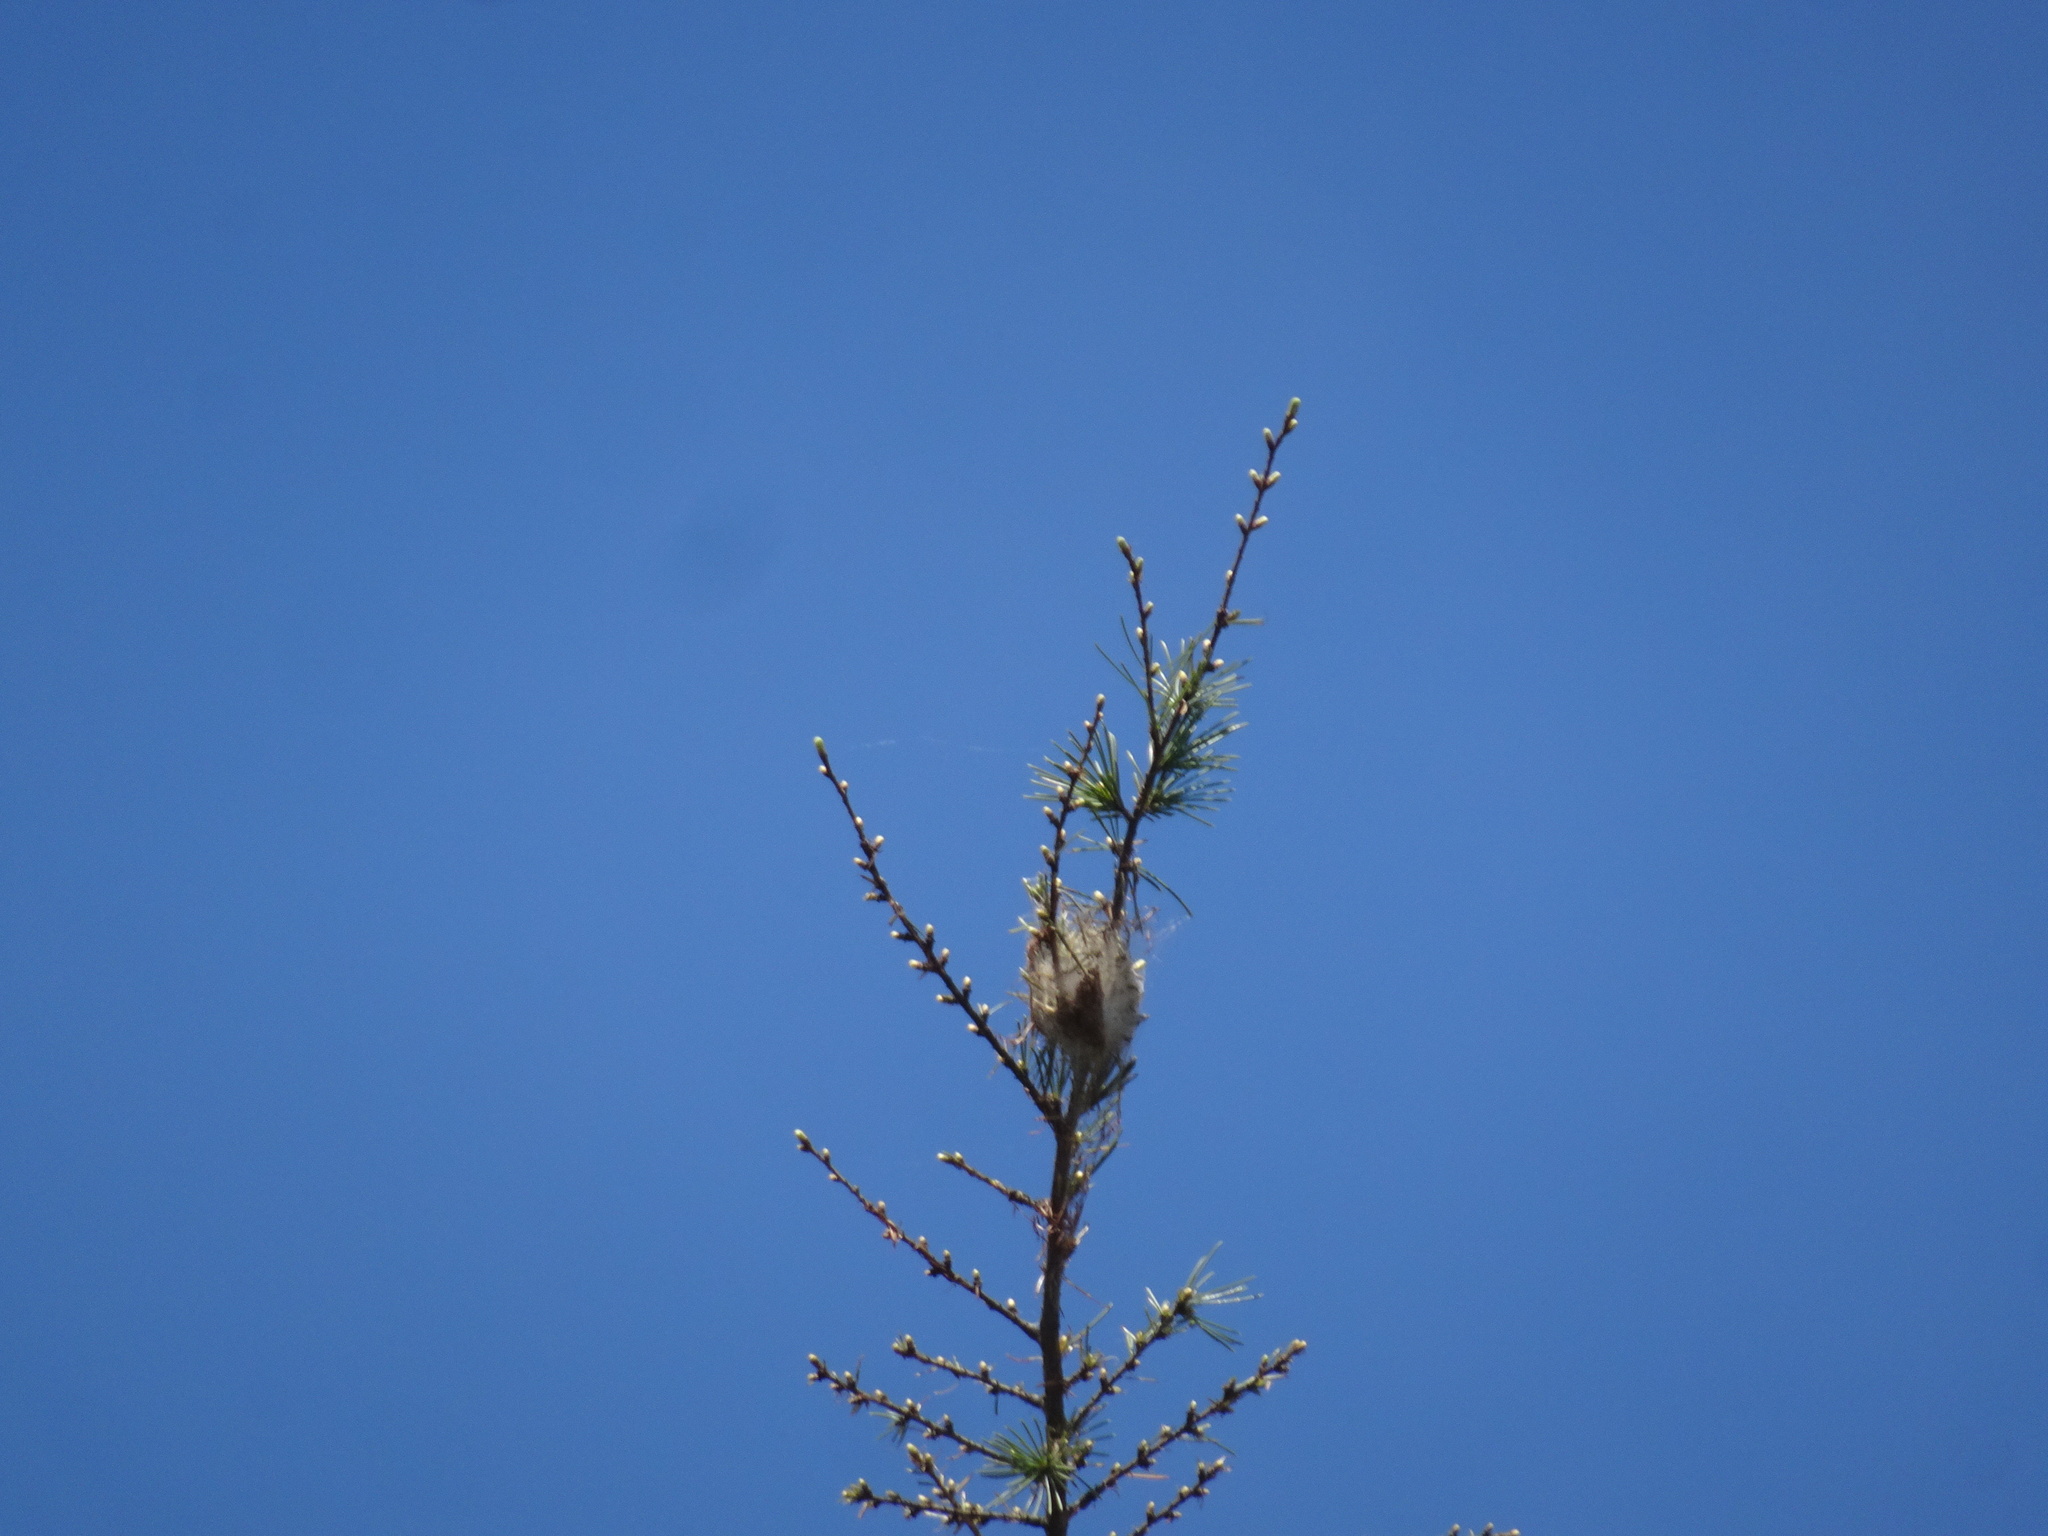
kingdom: Animalia
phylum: Arthropoda
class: Insecta
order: Lepidoptera
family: Notodontidae
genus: Thaumetopoea
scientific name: Thaumetopoea pityocampa
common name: Pine processionary
